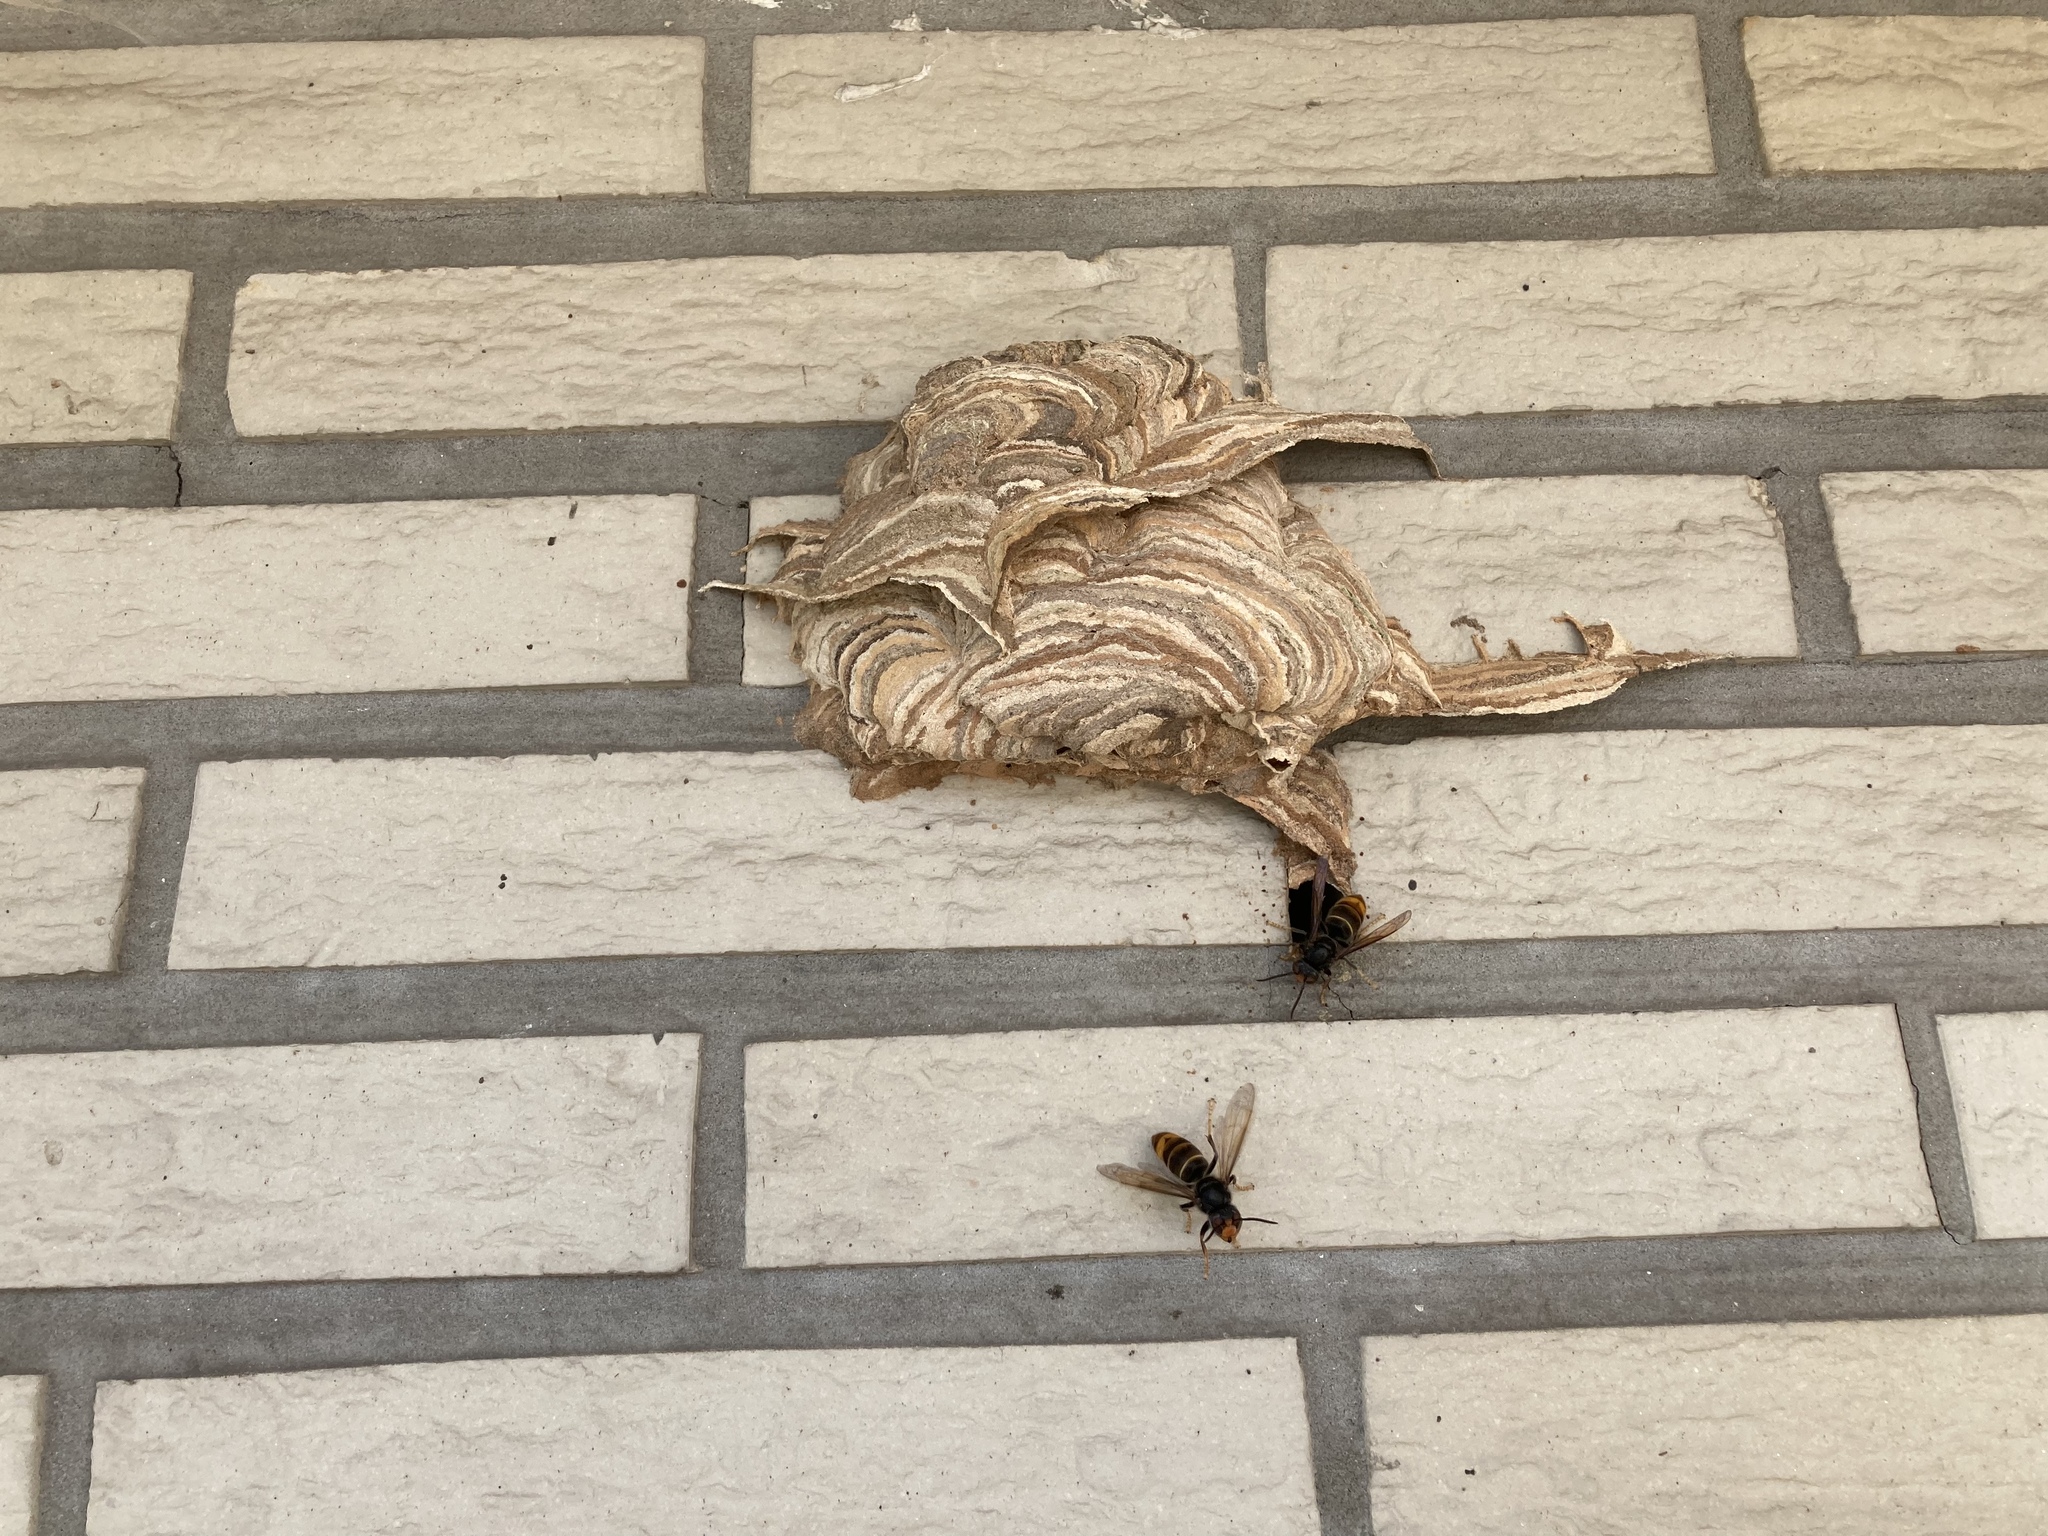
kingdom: Animalia
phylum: Arthropoda
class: Insecta
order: Hymenoptera
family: Vespidae
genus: Vespa
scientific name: Vespa velutina
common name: Asian hornet
